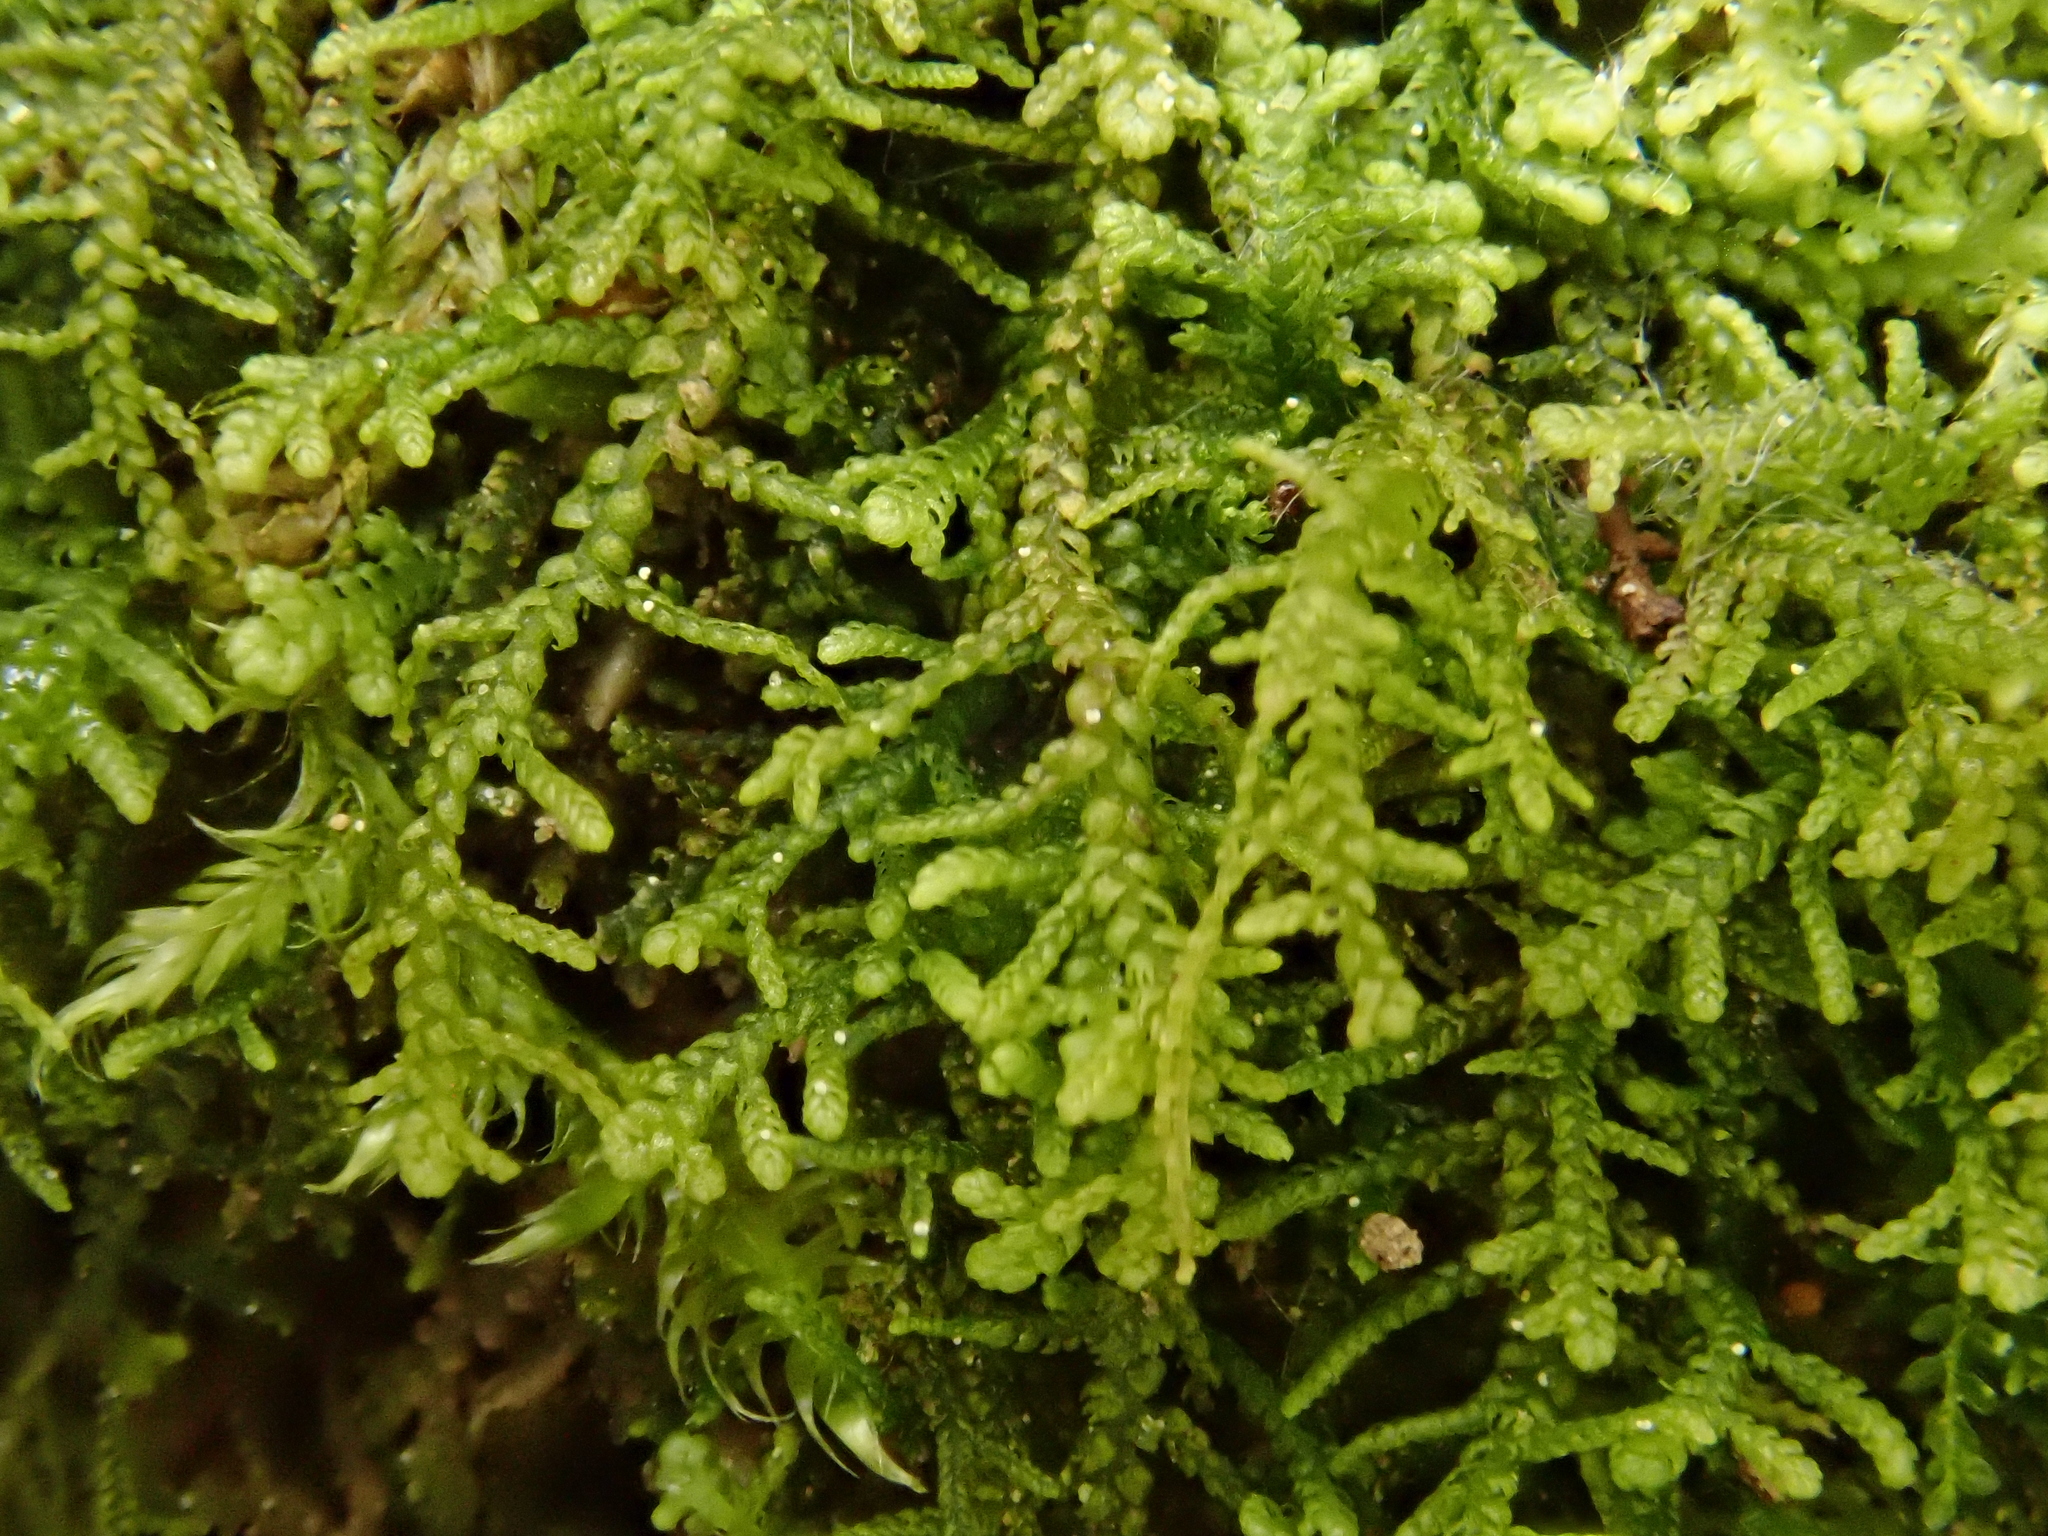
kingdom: Plantae
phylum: Marchantiophyta
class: Jungermanniopsida
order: Jungermanniales
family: Lepidoziaceae
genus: Lepidozia
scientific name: Lepidozia reptans
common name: Creeping fingerwort
